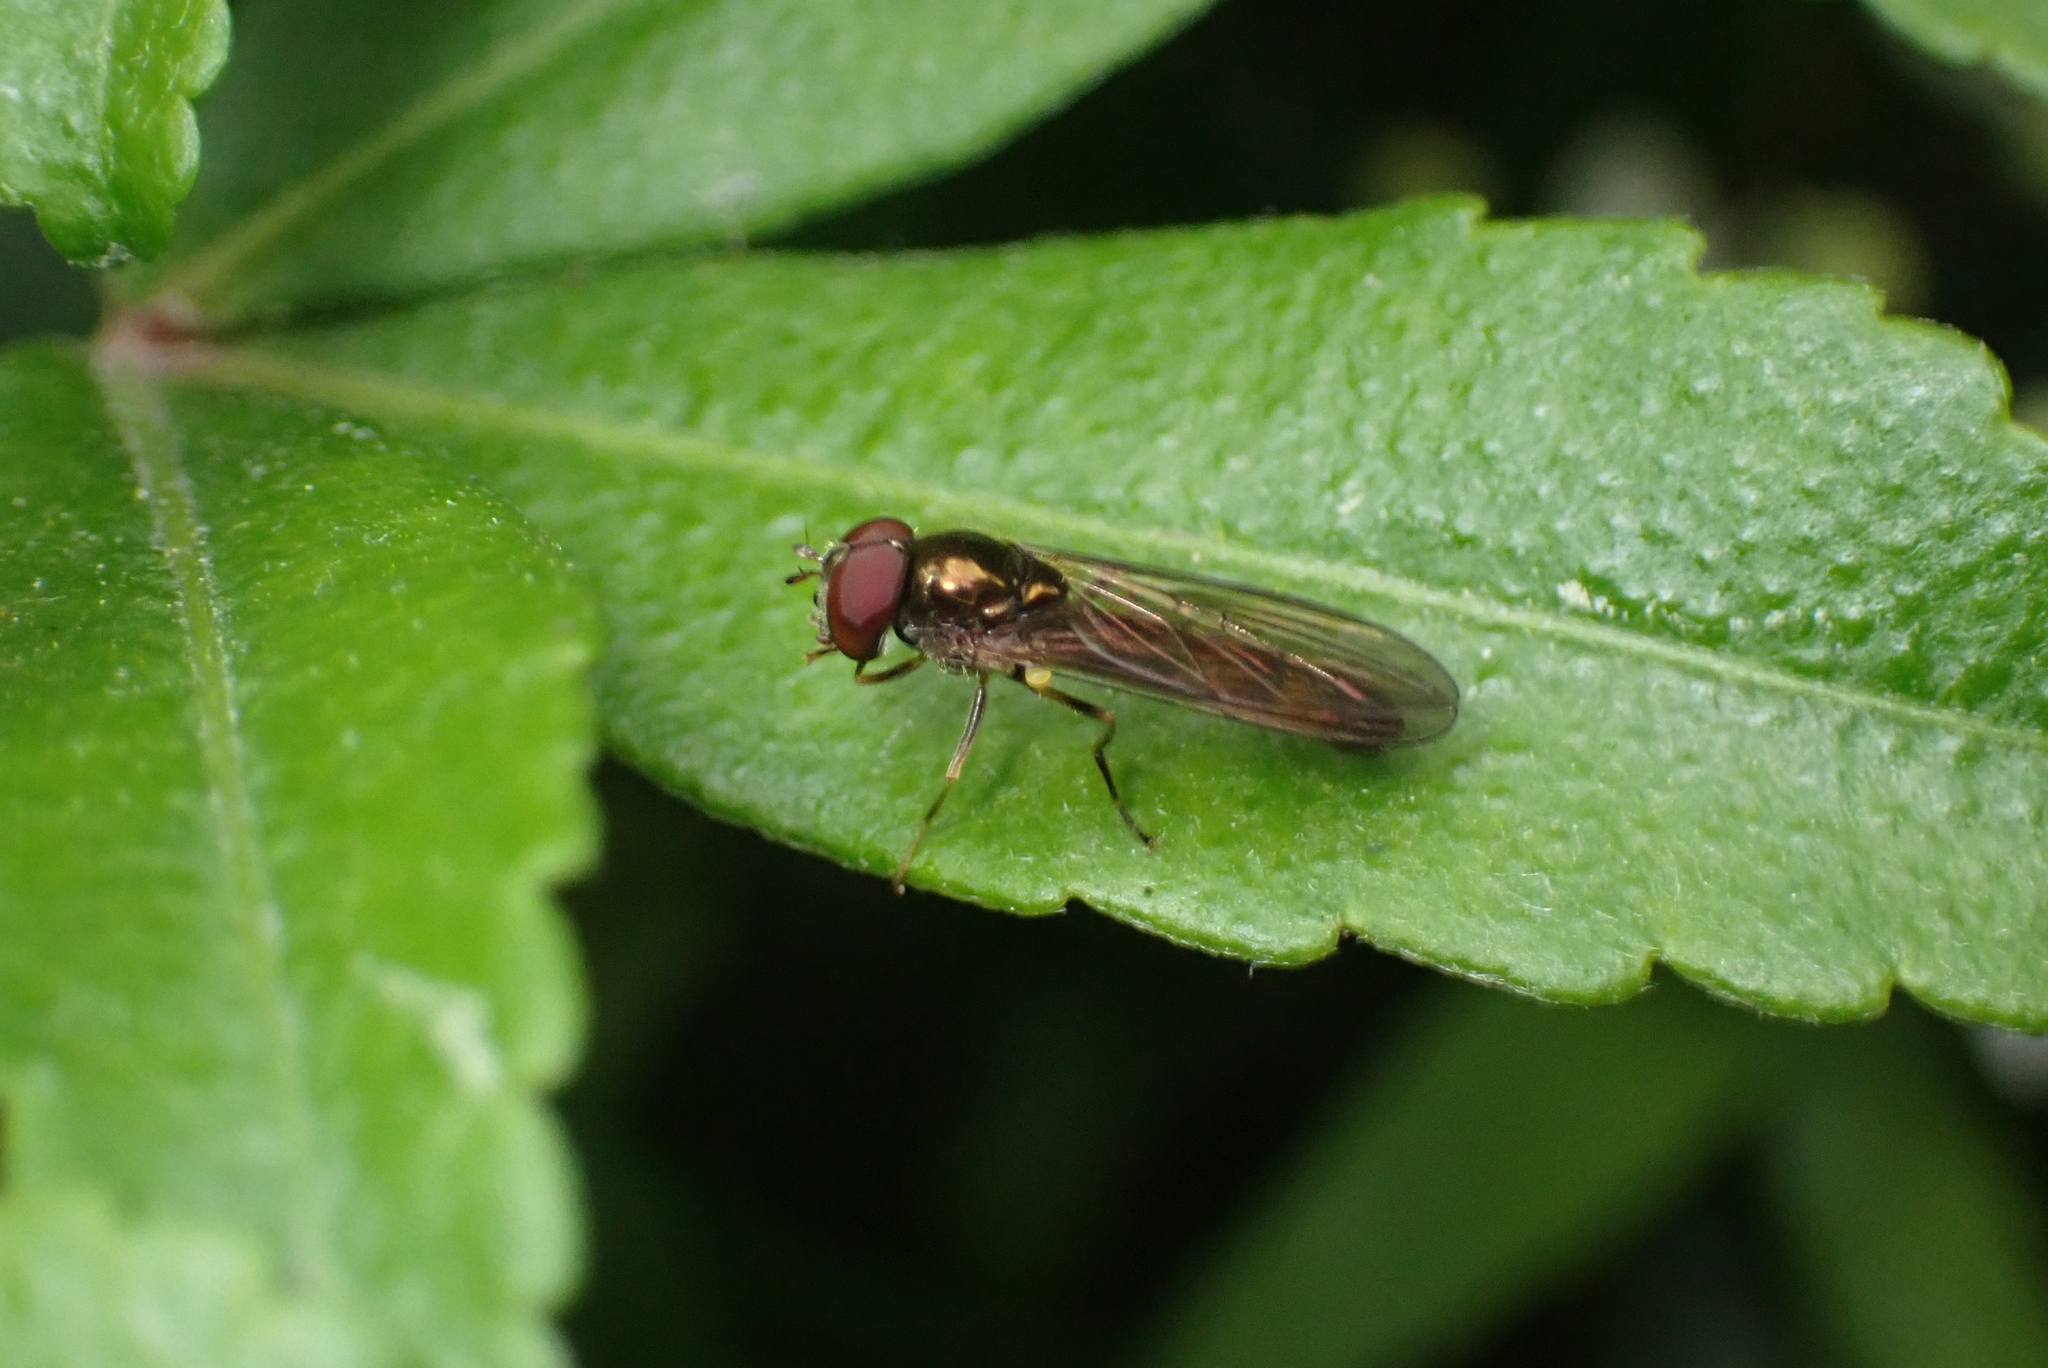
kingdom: Animalia
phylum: Arthropoda
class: Insecta
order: Diptera
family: Syrphidae
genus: Melanostoma
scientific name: Melanostoma scalare
